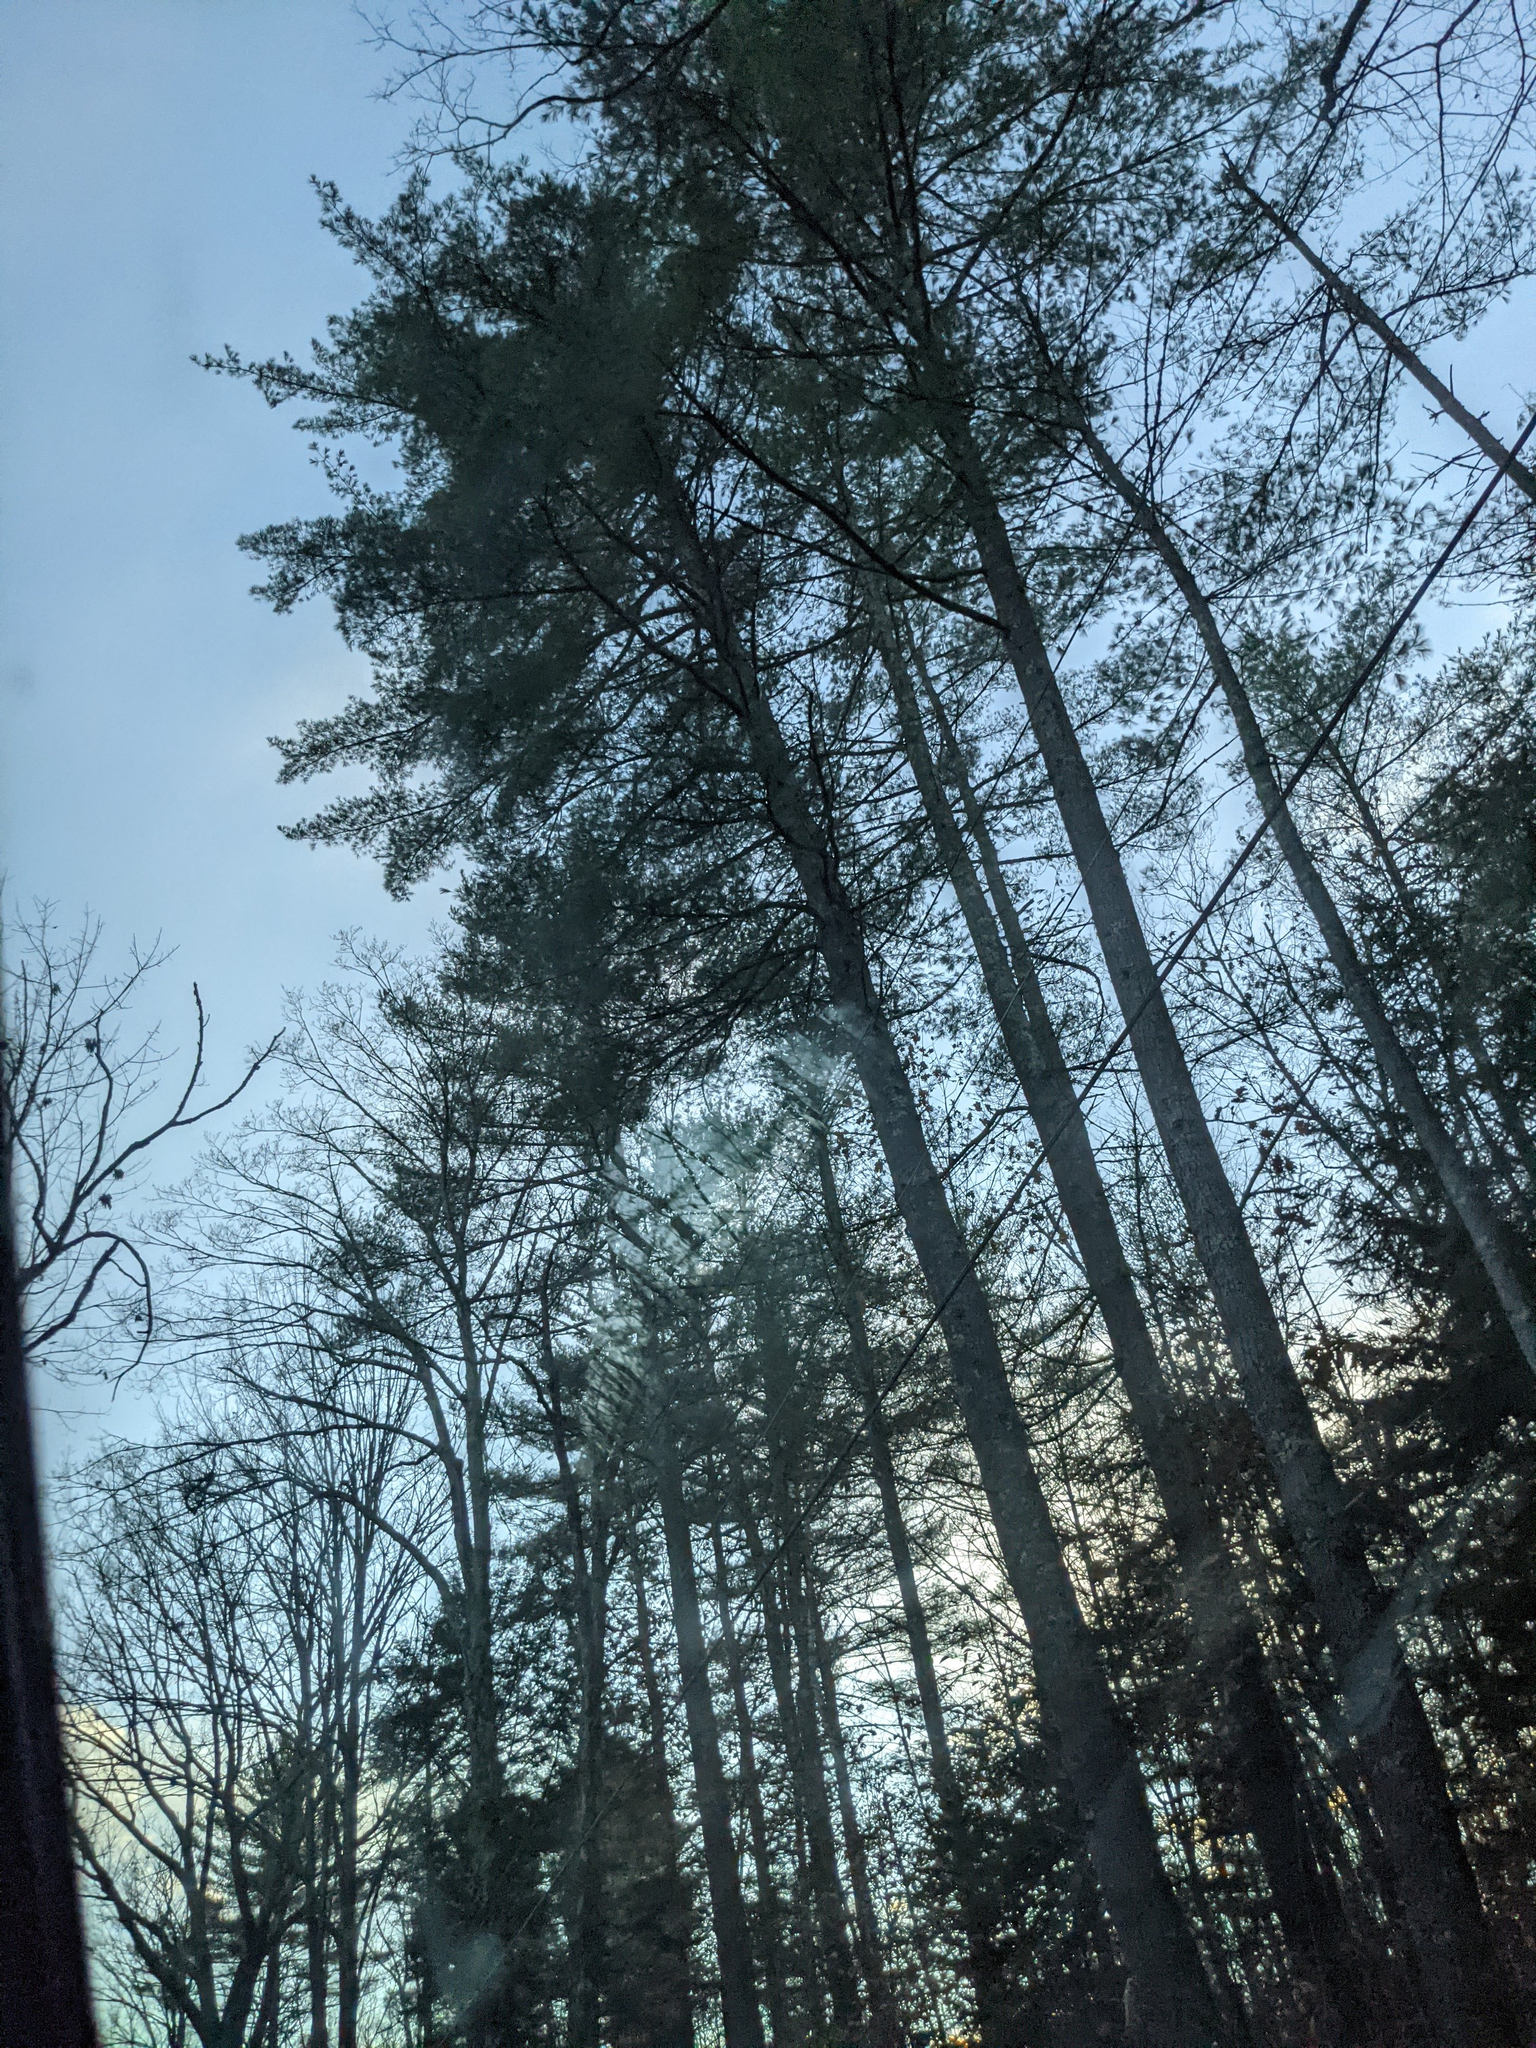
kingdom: Plantae
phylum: Tracheophyta
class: Pinopsida
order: Pinales
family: Pinaceae
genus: Pinus
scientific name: Pinus strobus
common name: Weymouth pine
